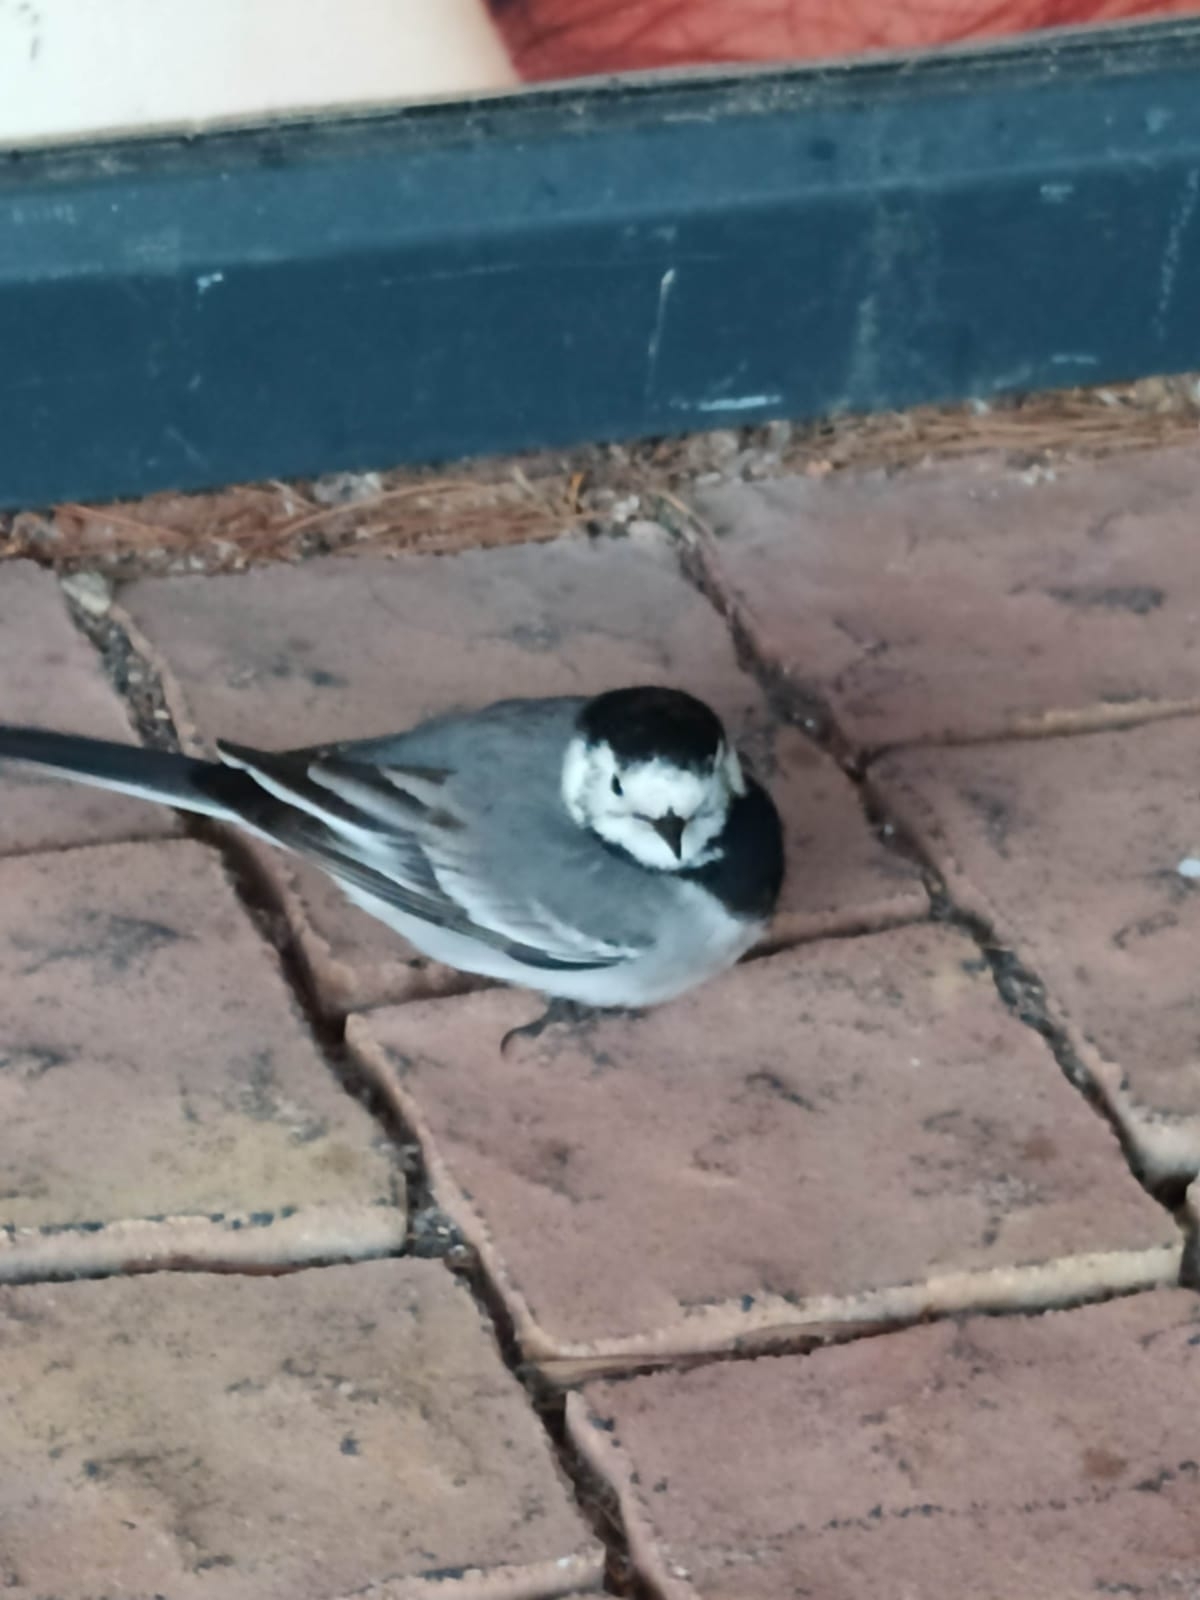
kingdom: Animalia
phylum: Chordata
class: Aves
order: Passeriformes
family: Motacillidae
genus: Motacilla
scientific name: Motacilla alba
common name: White wagtail
